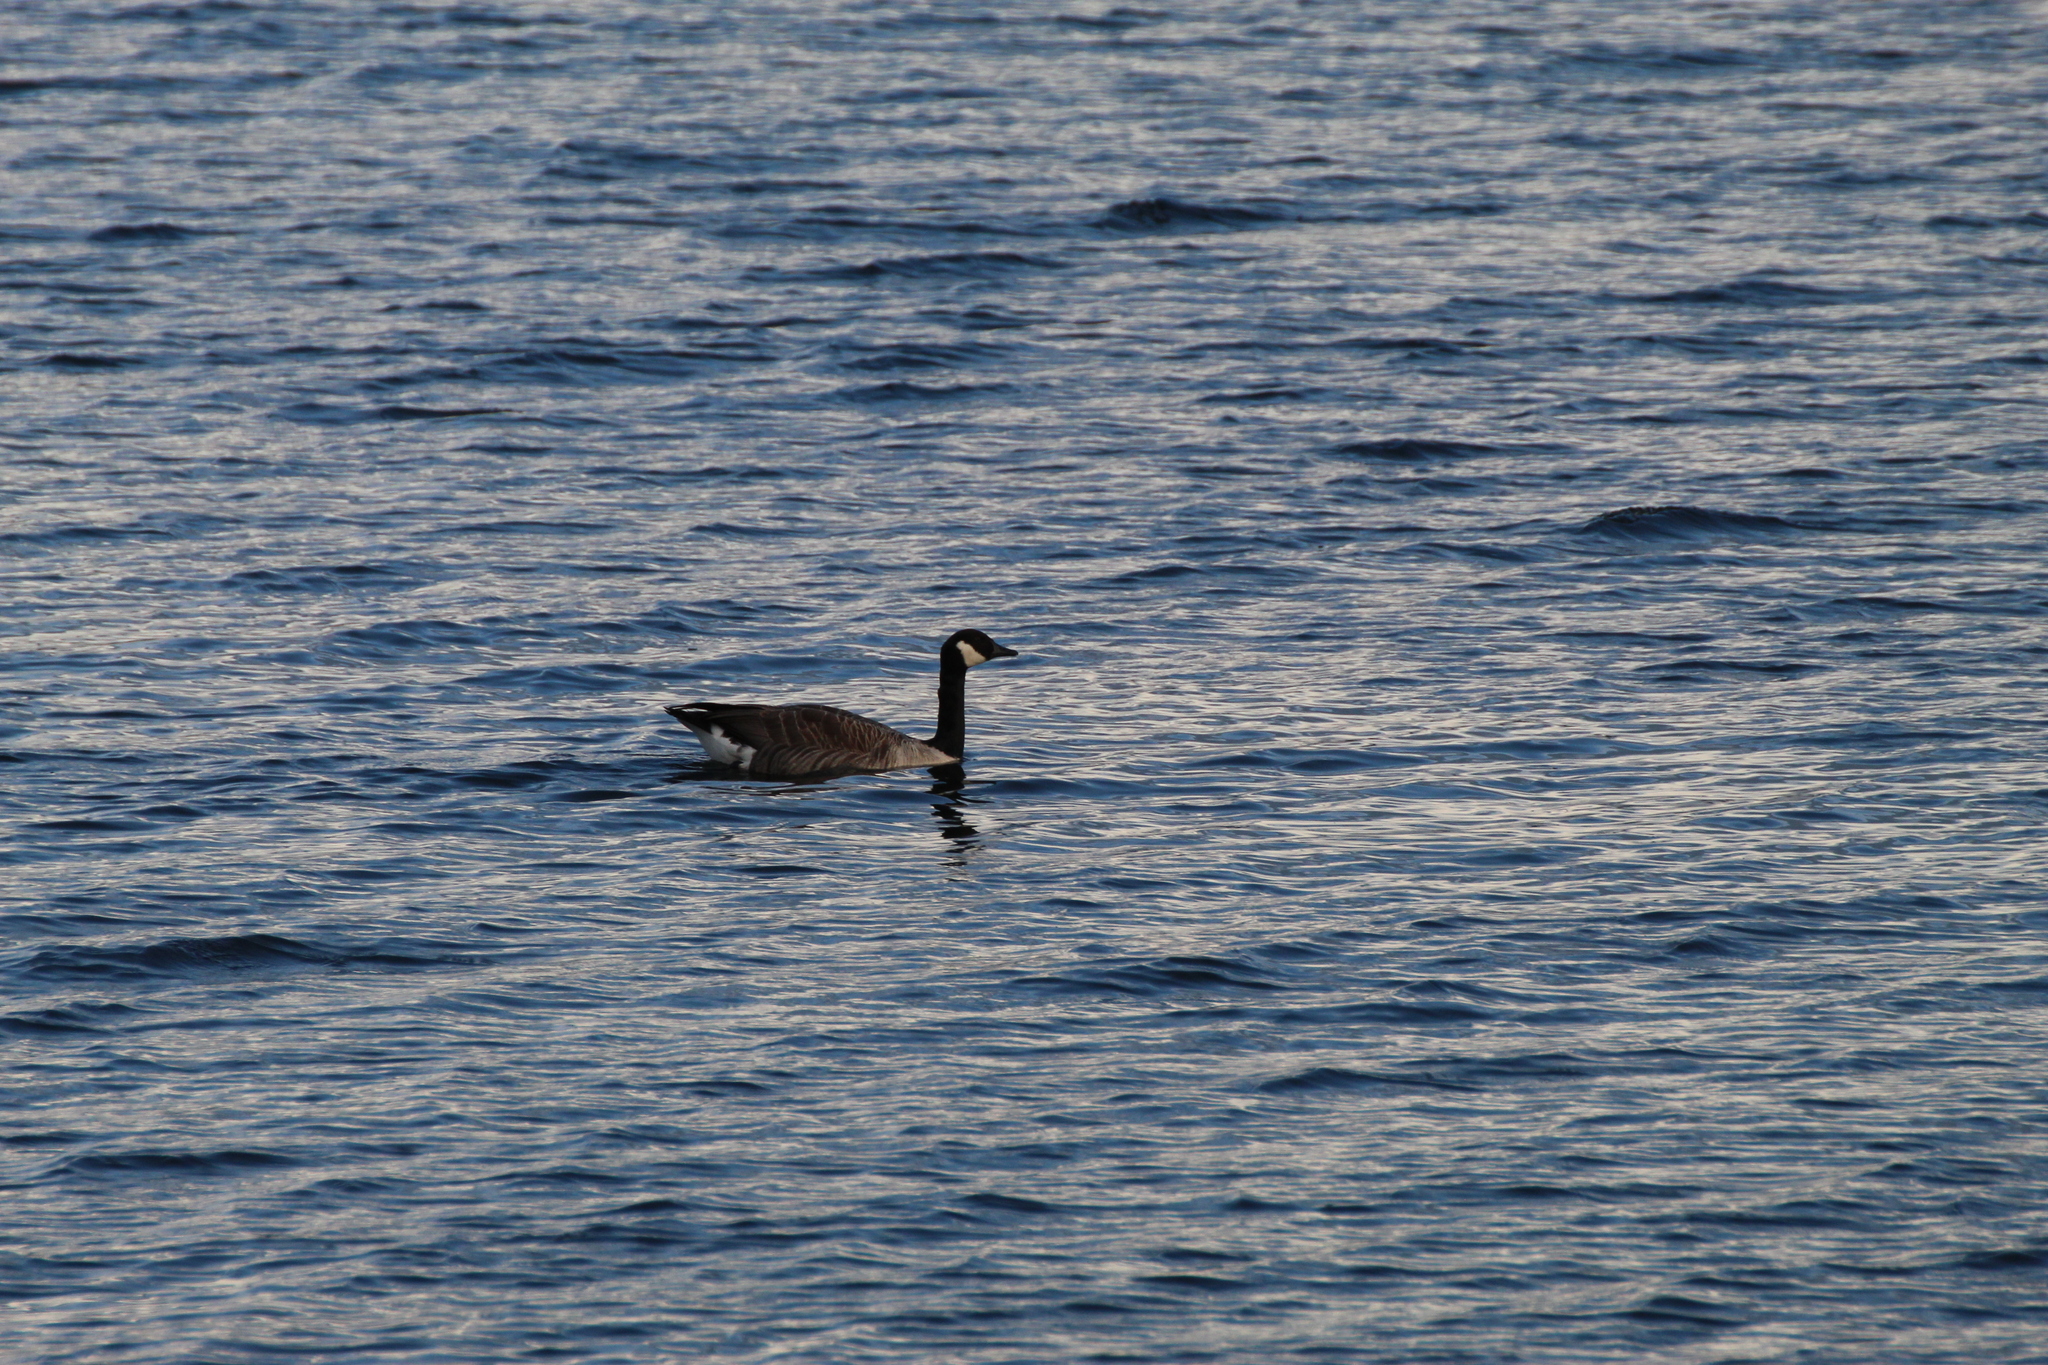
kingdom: Animalia
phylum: Chordata
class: Aves
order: Anseriformes
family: Anatidae
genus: Branta
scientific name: Branta canadensis
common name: Canada goose
